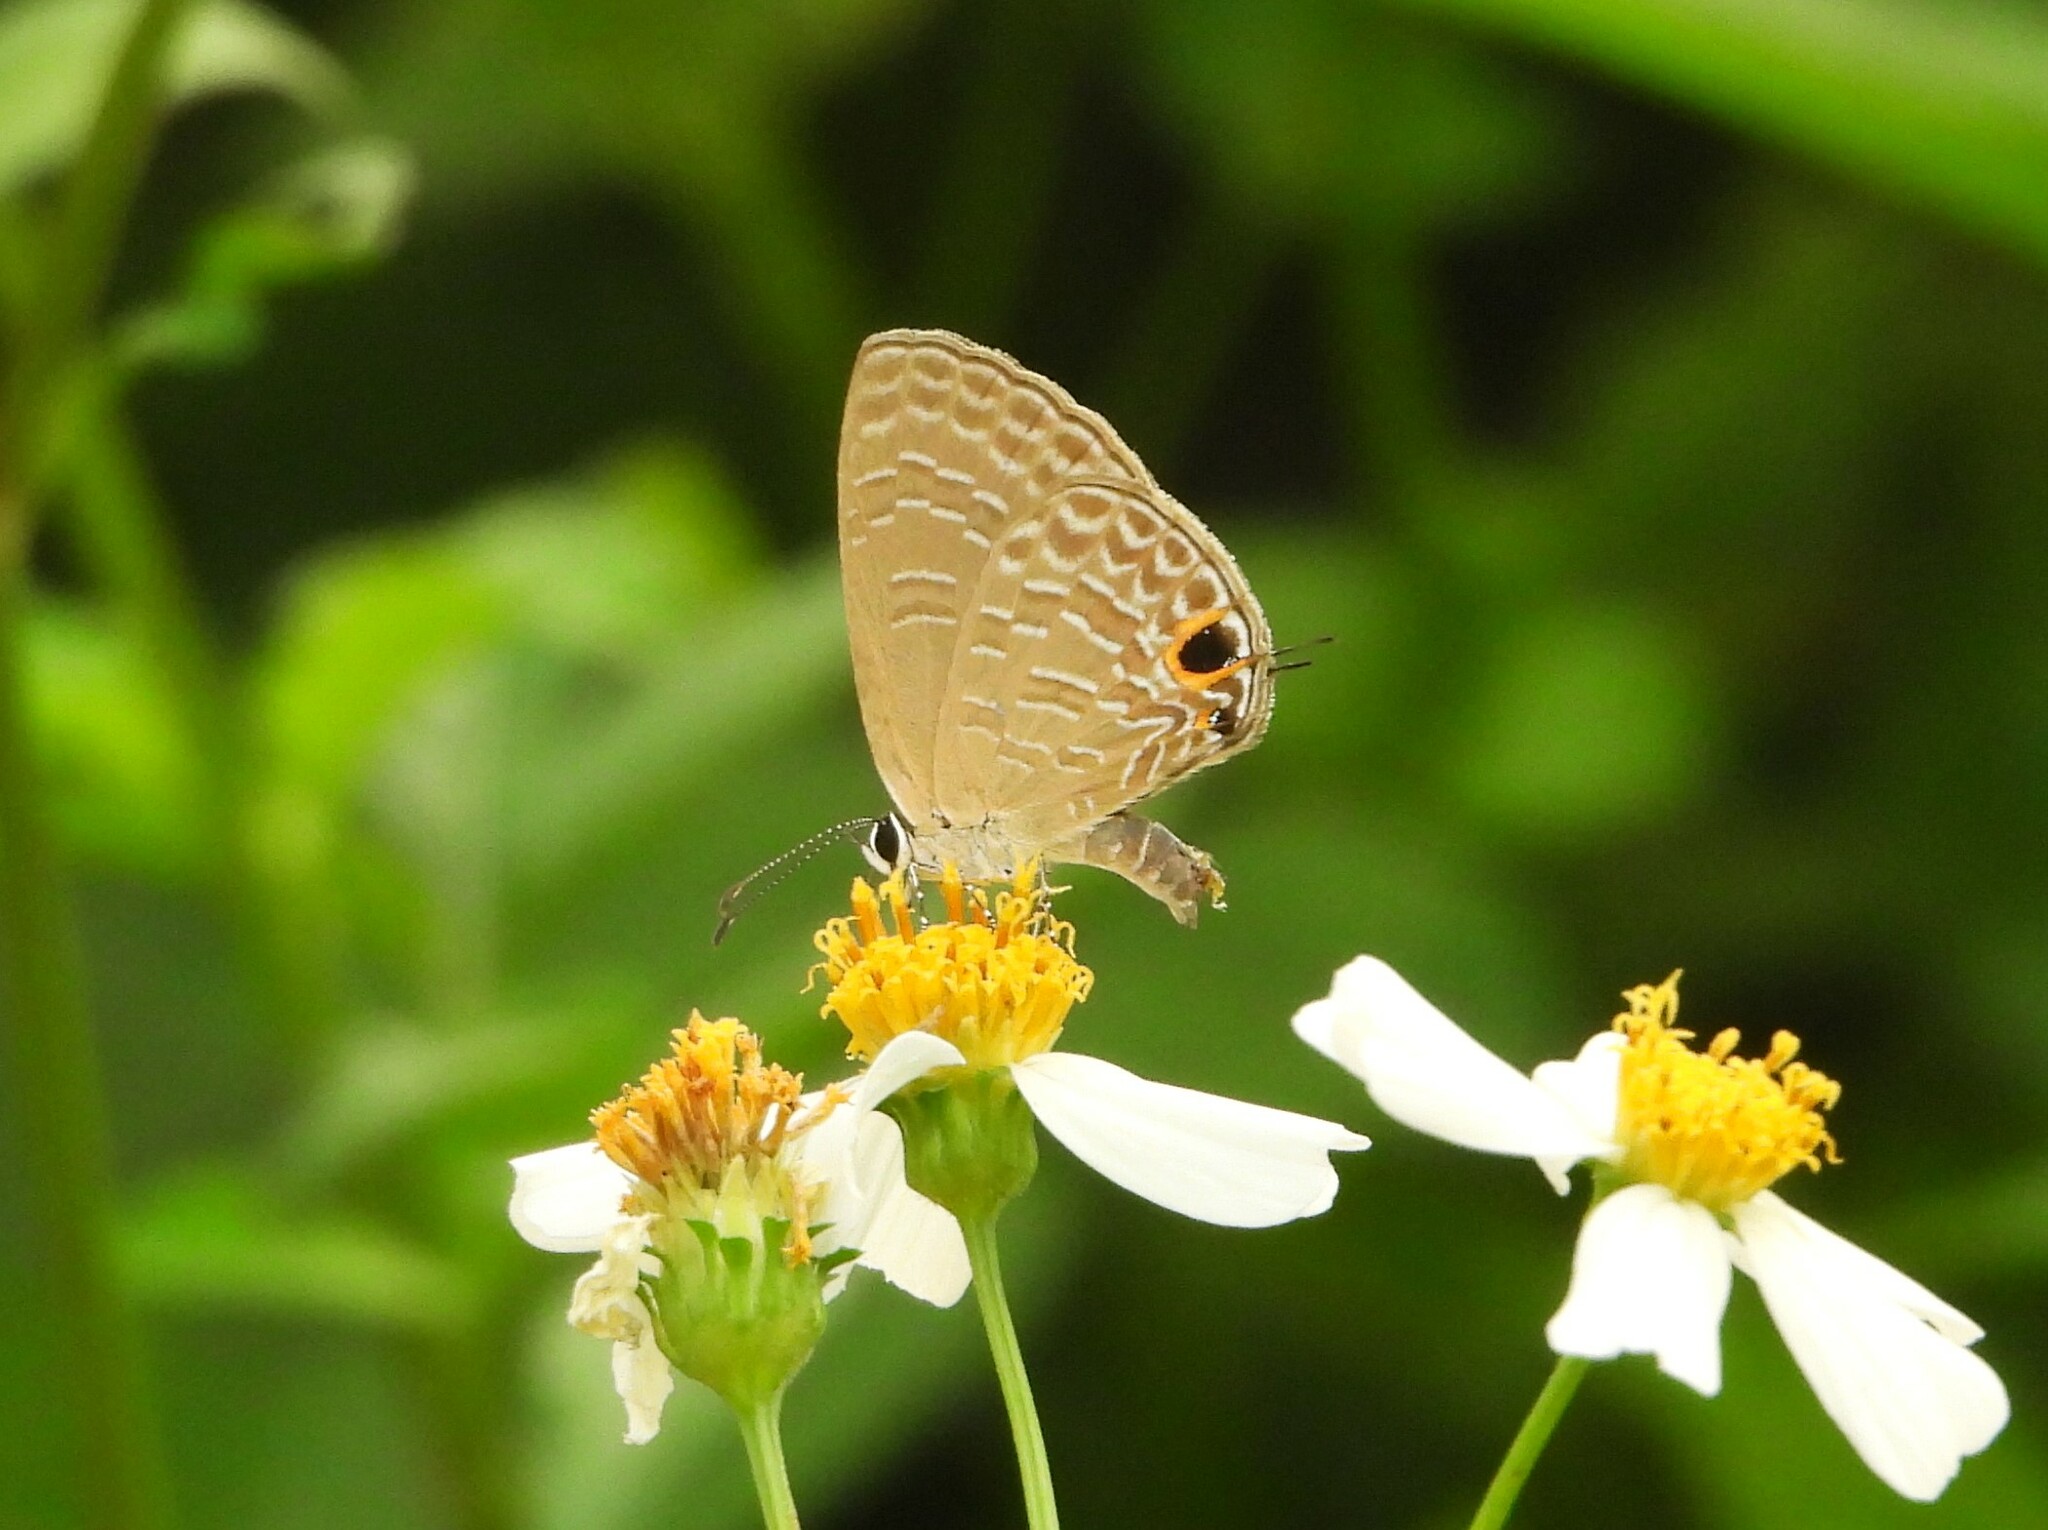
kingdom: Animalia
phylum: Arthropoda
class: Insecta
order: Lepidoptera
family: Lycaenidae
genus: Jamides
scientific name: Jamides bochus
